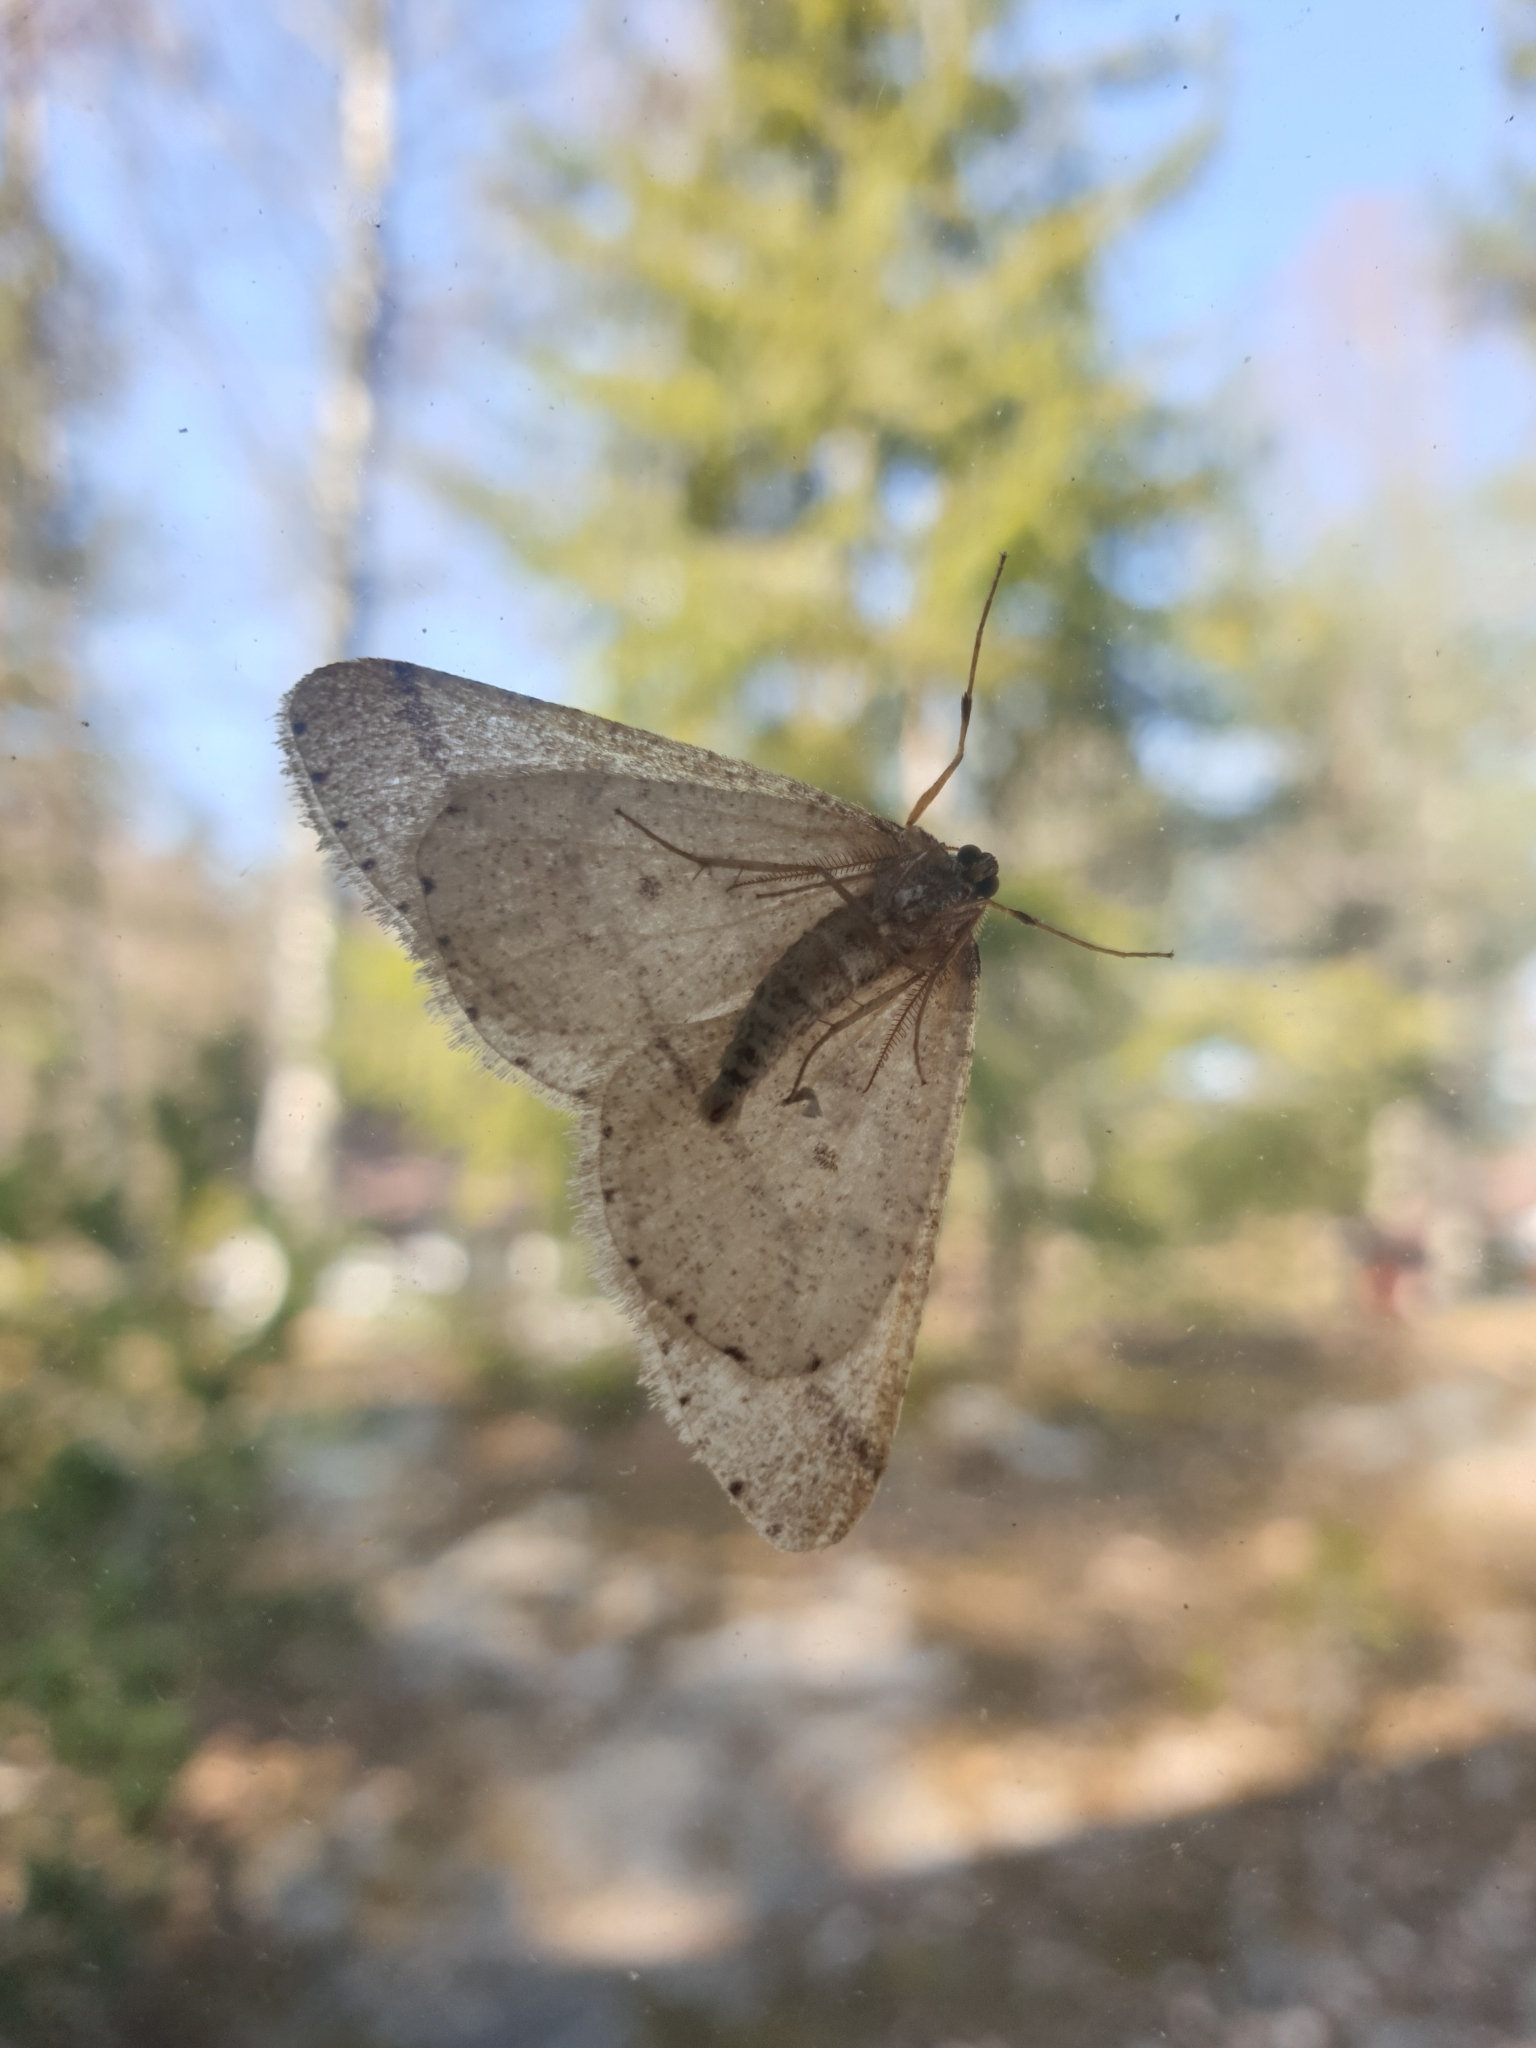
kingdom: Animalia
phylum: Arthropoda
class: Insecta
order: Lepidoptera
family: Geometridae
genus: Agriopis
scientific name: Agriopis marginaria
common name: Dotted border
